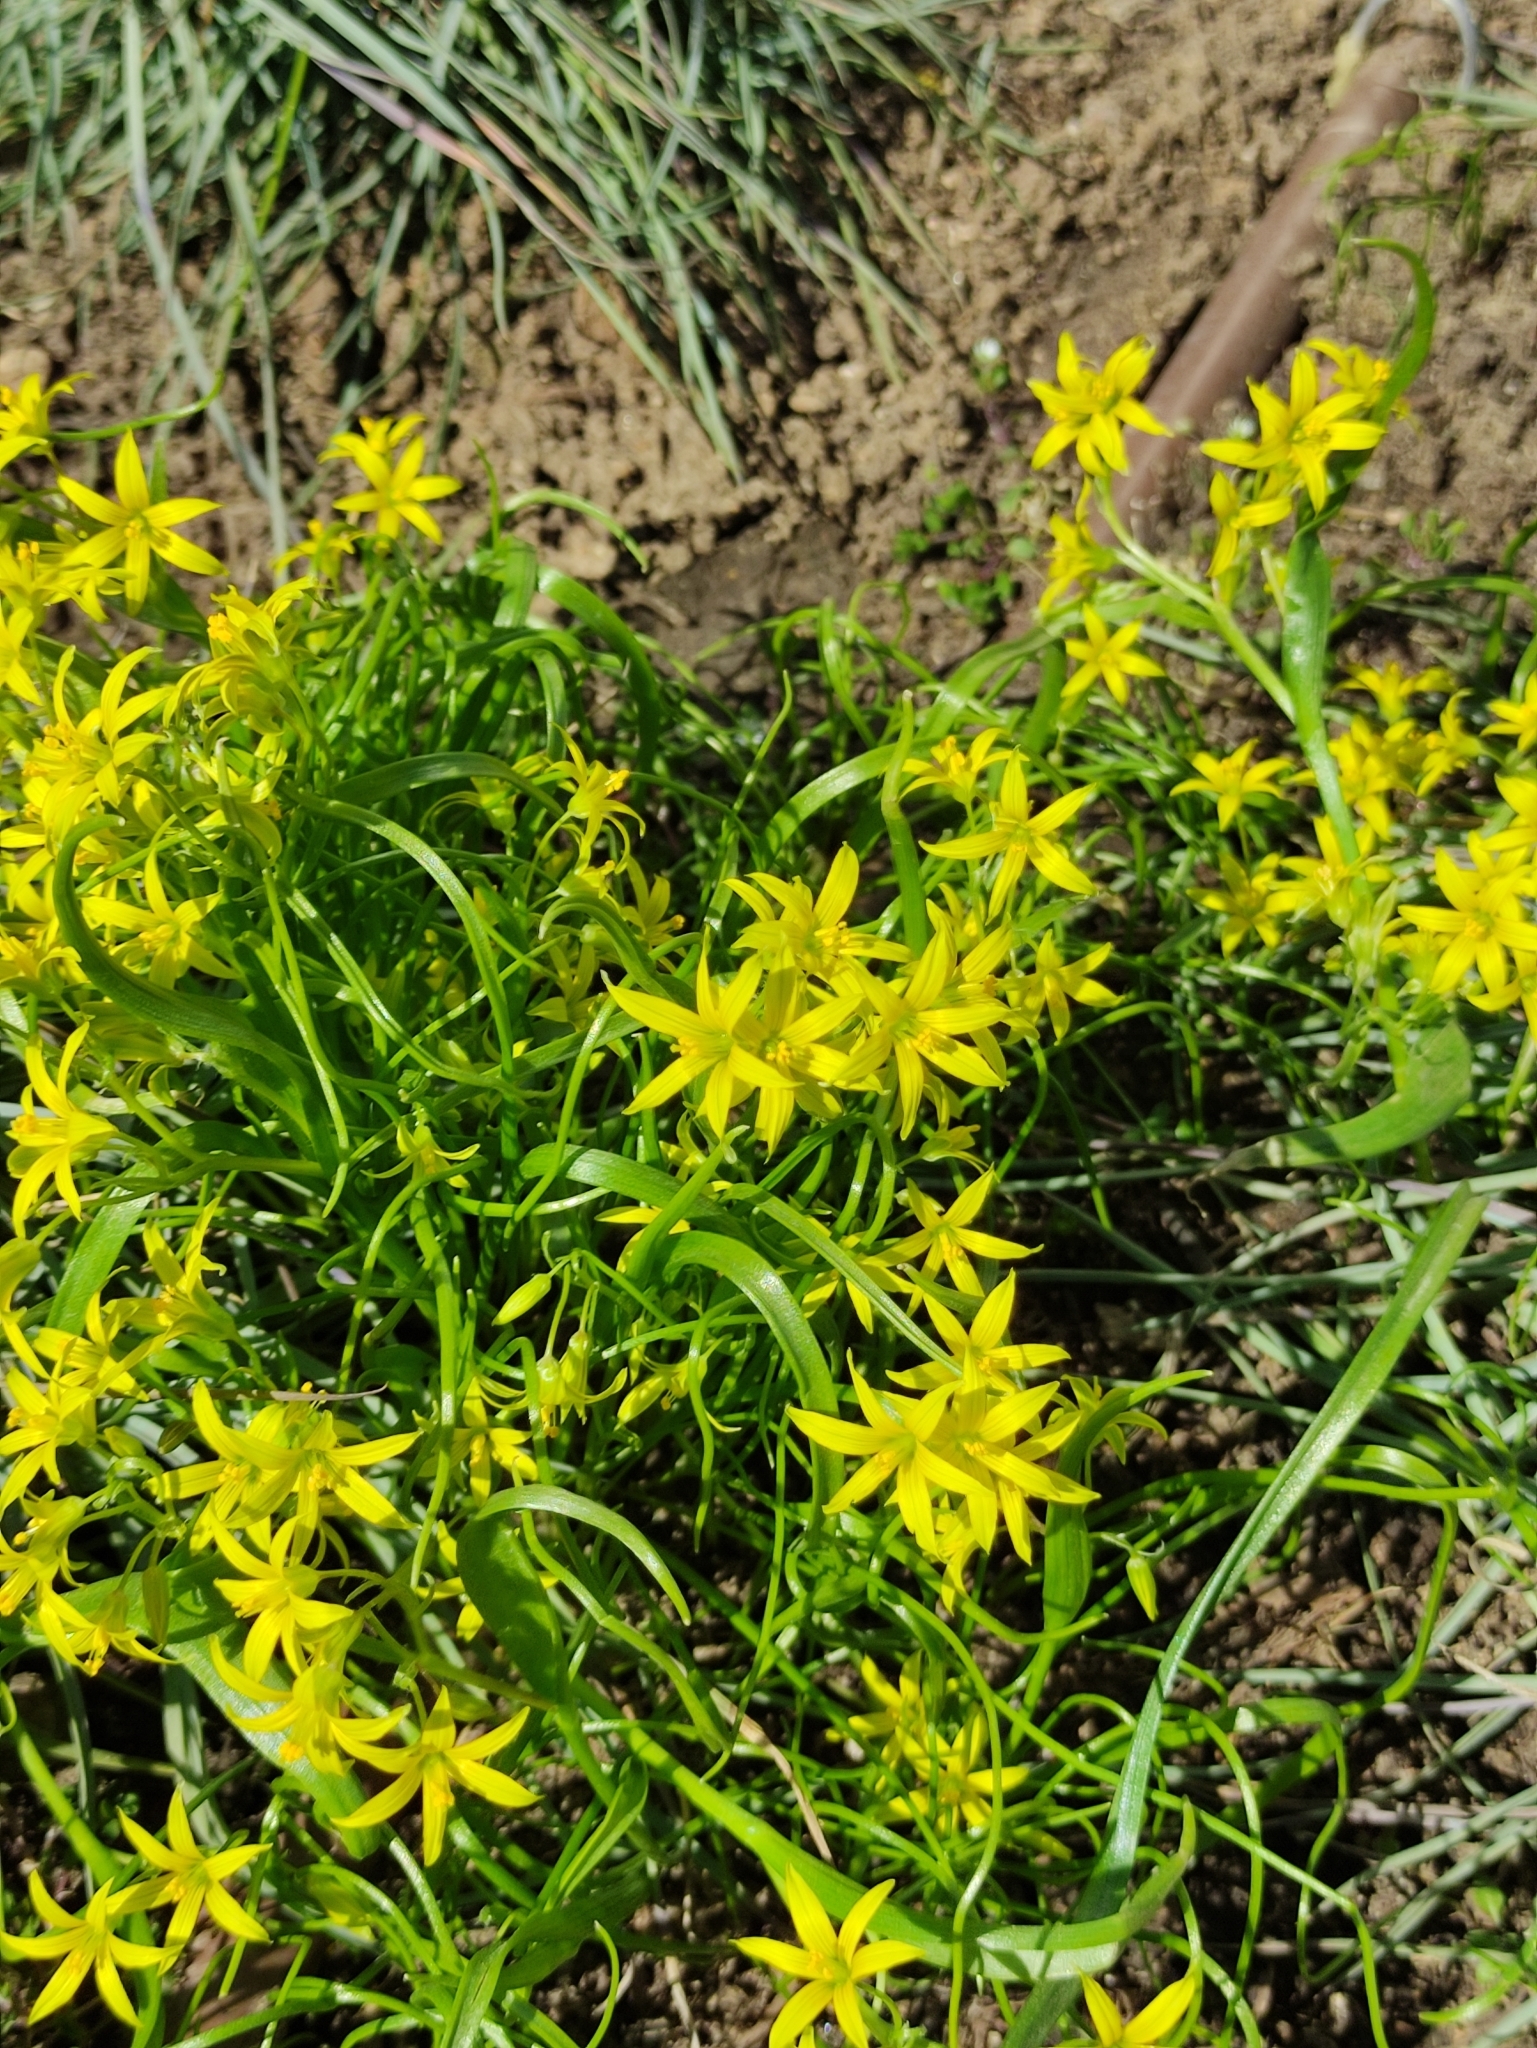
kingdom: Plantae
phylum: Tracheophyta
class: Liliopsida
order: Liliales
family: Liliaceae
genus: Gagea
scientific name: Gagea minima
